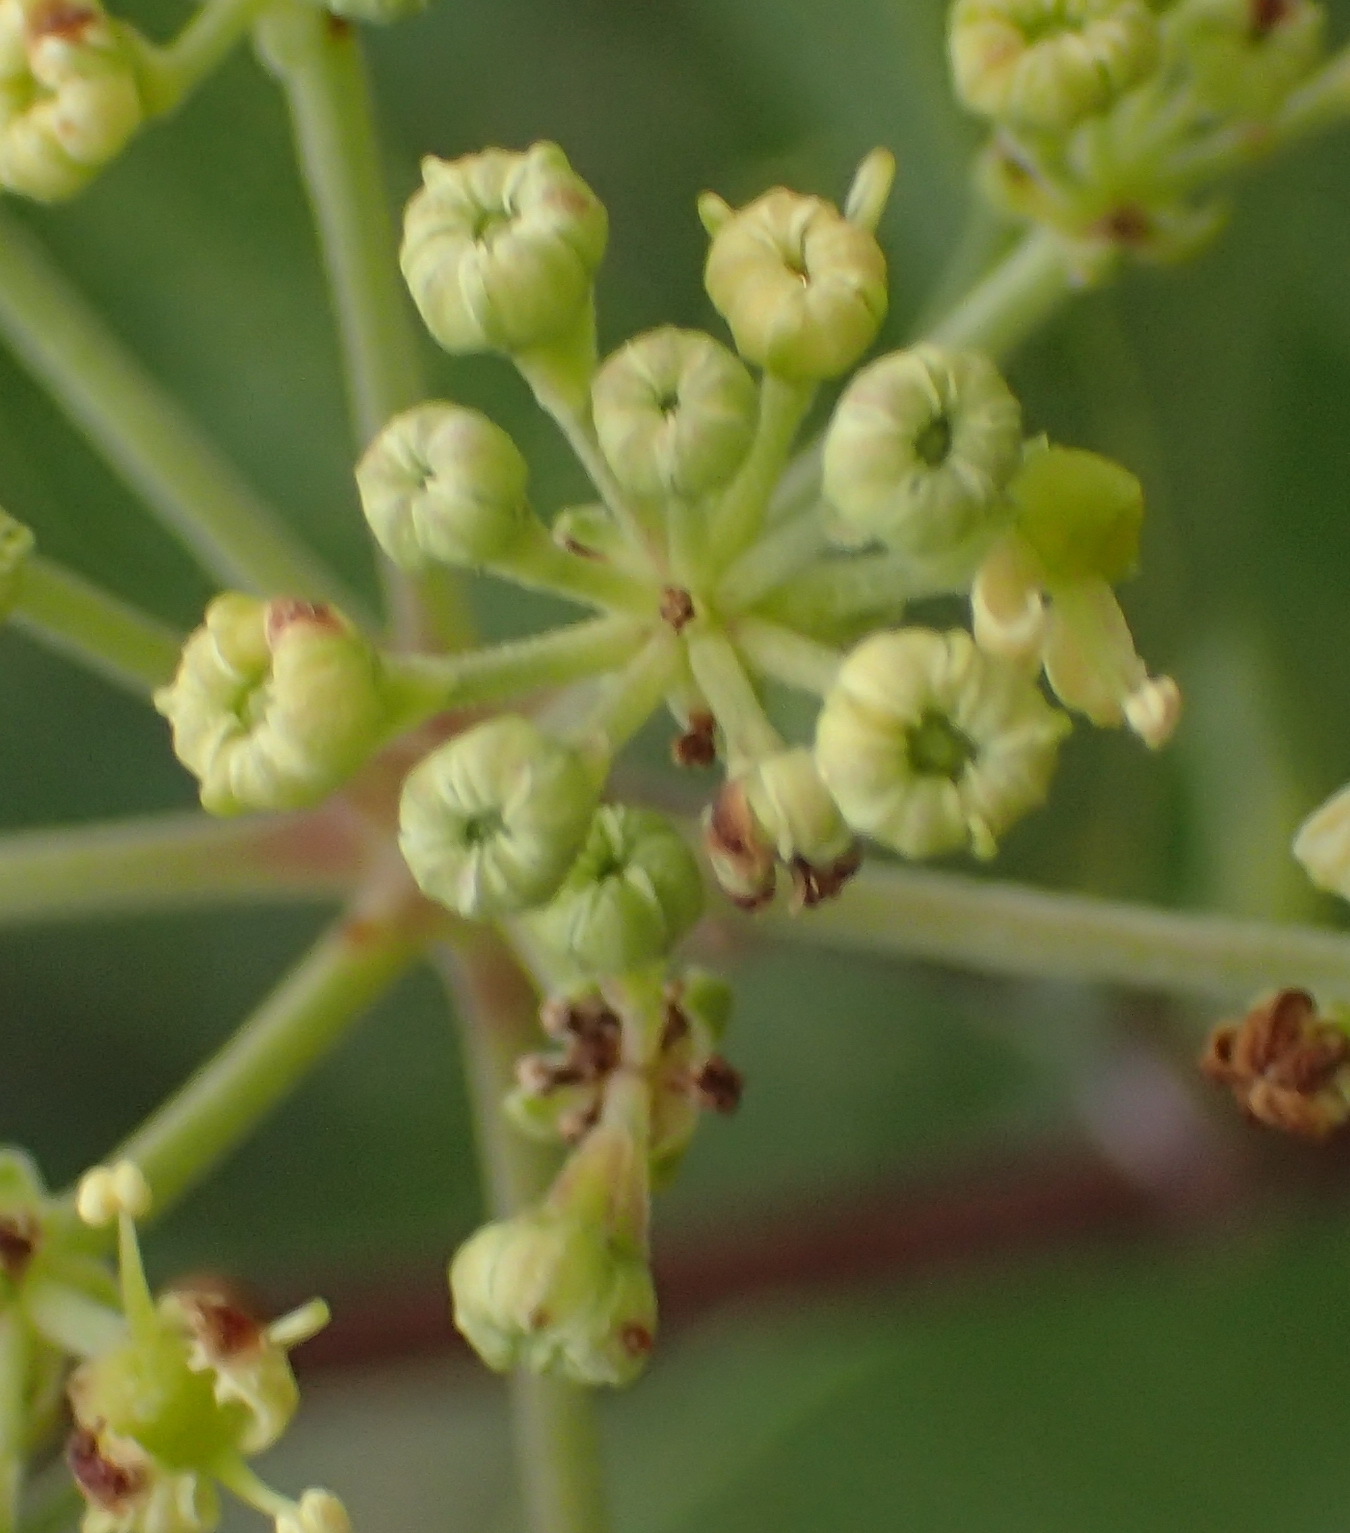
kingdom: Plantae
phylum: Tracheophyta
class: Magnoliopsida
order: Apiales
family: Apiaceae
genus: Heteromorpha
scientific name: Heteromorpha arborescens
